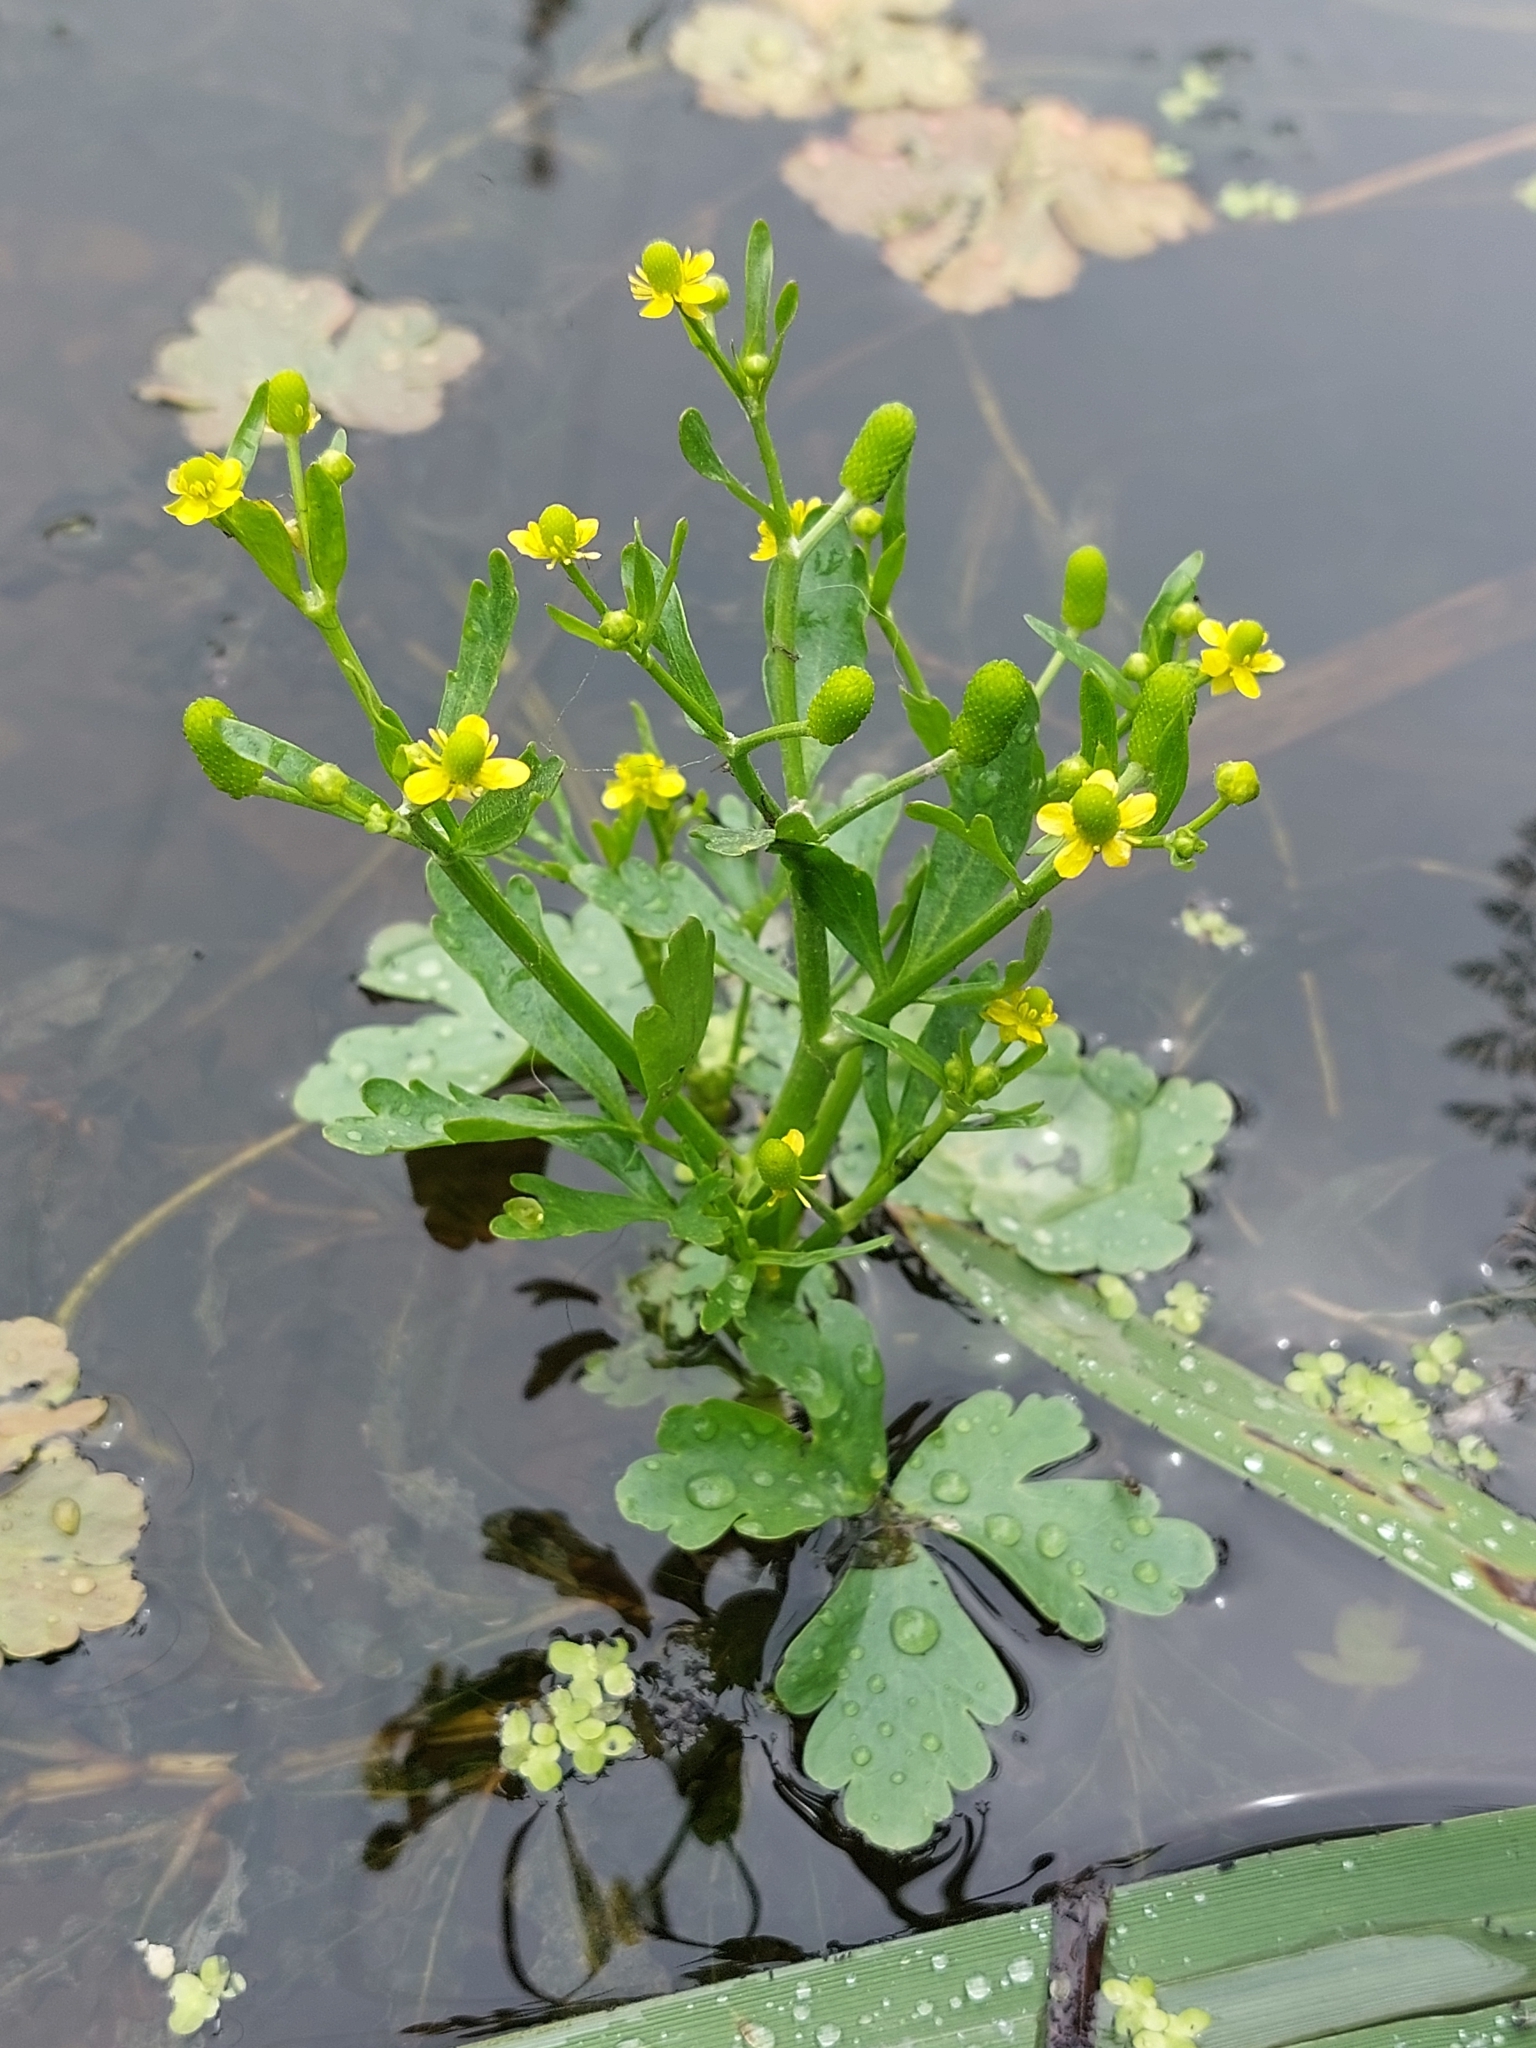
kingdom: Plantae
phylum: Tracheophyta
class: Magnoliopsida
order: Ranunculales
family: Ranunculaceae
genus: Ranunculus
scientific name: Ranunculus sceleratus
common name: Celery-leaved buttercup
